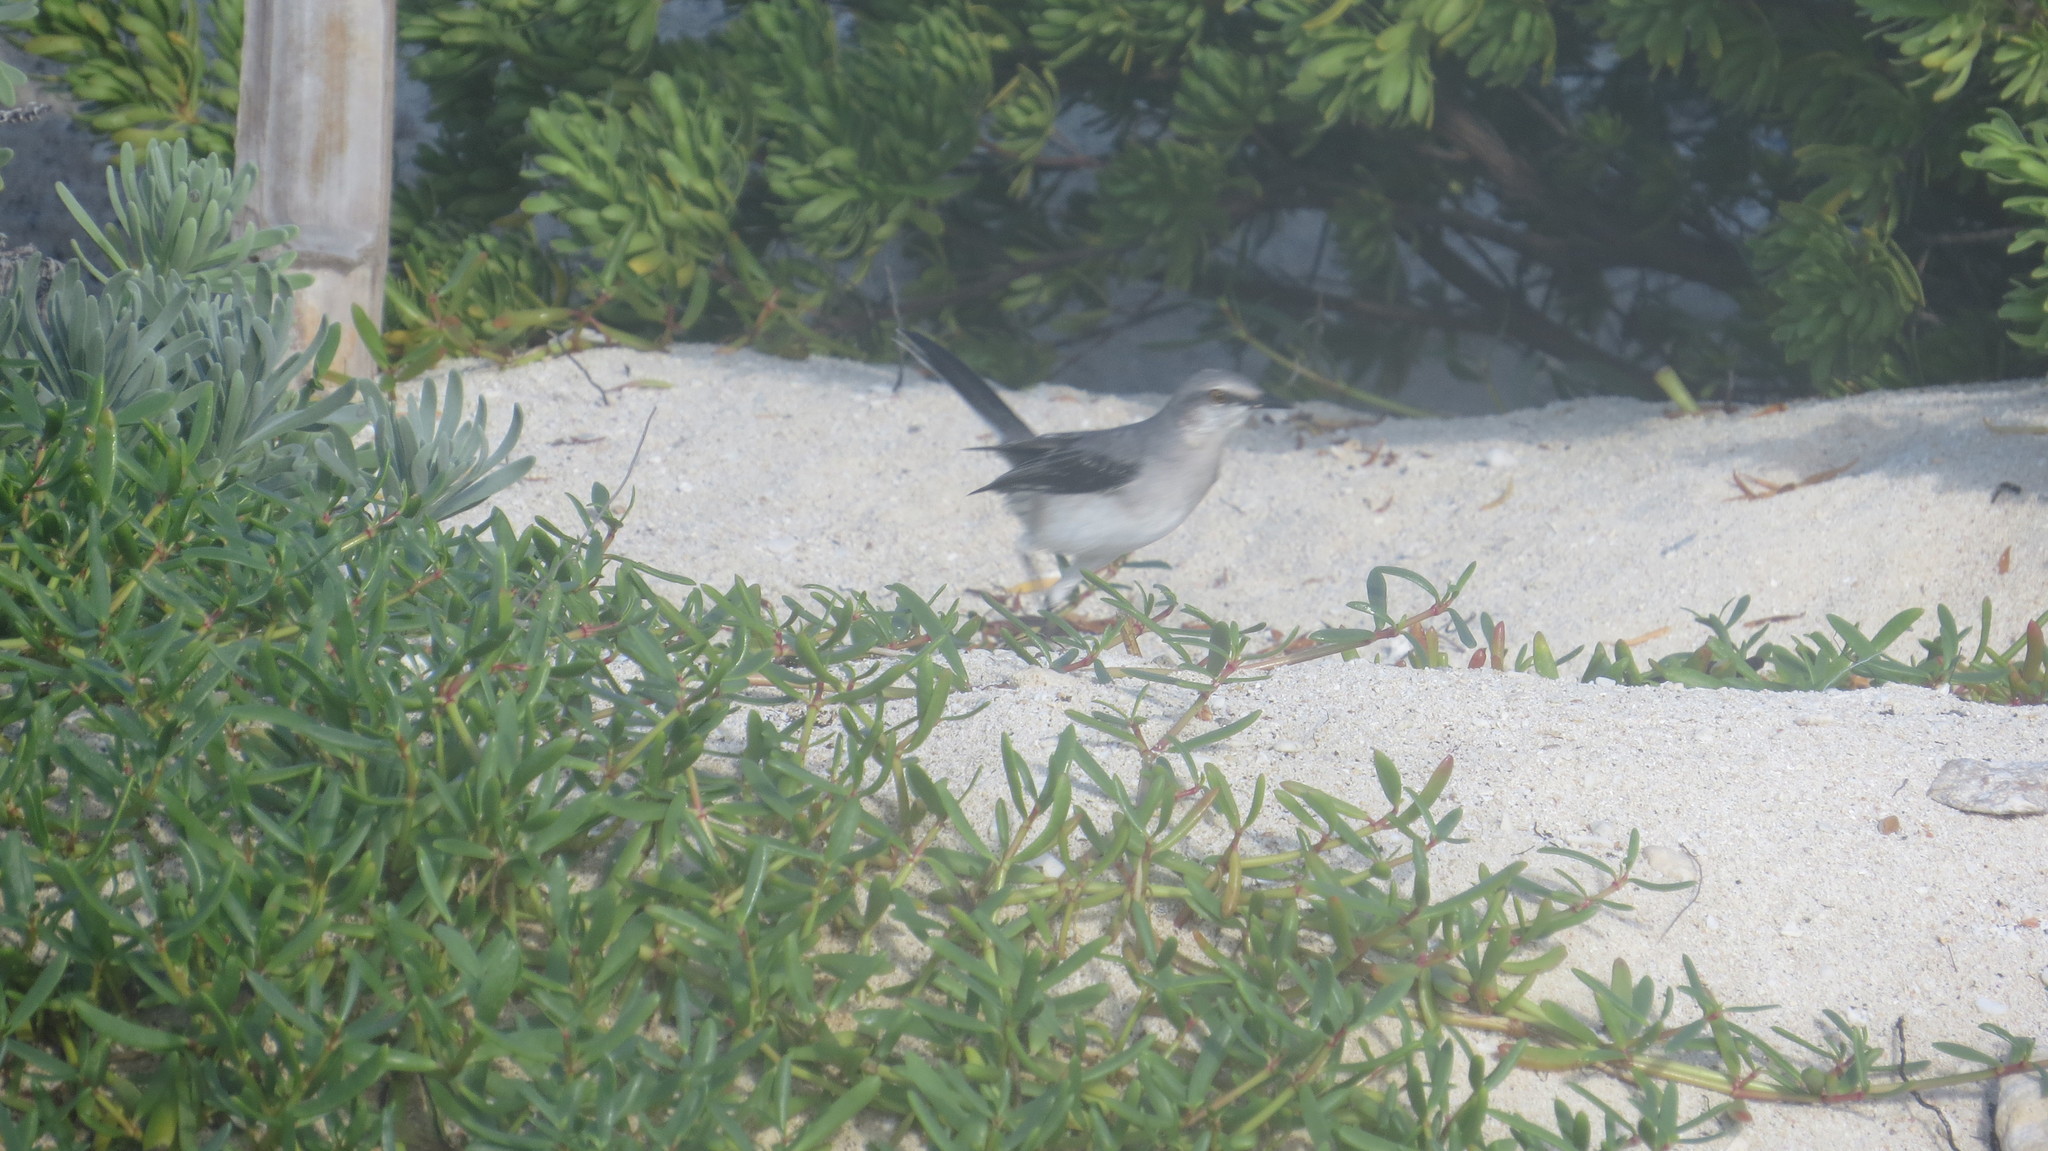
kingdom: Animalia
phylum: Chordata
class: Aves
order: Passeriformes
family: Mimidae
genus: Mimus
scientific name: Mimus gilvus
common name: Tropical mockingbird
